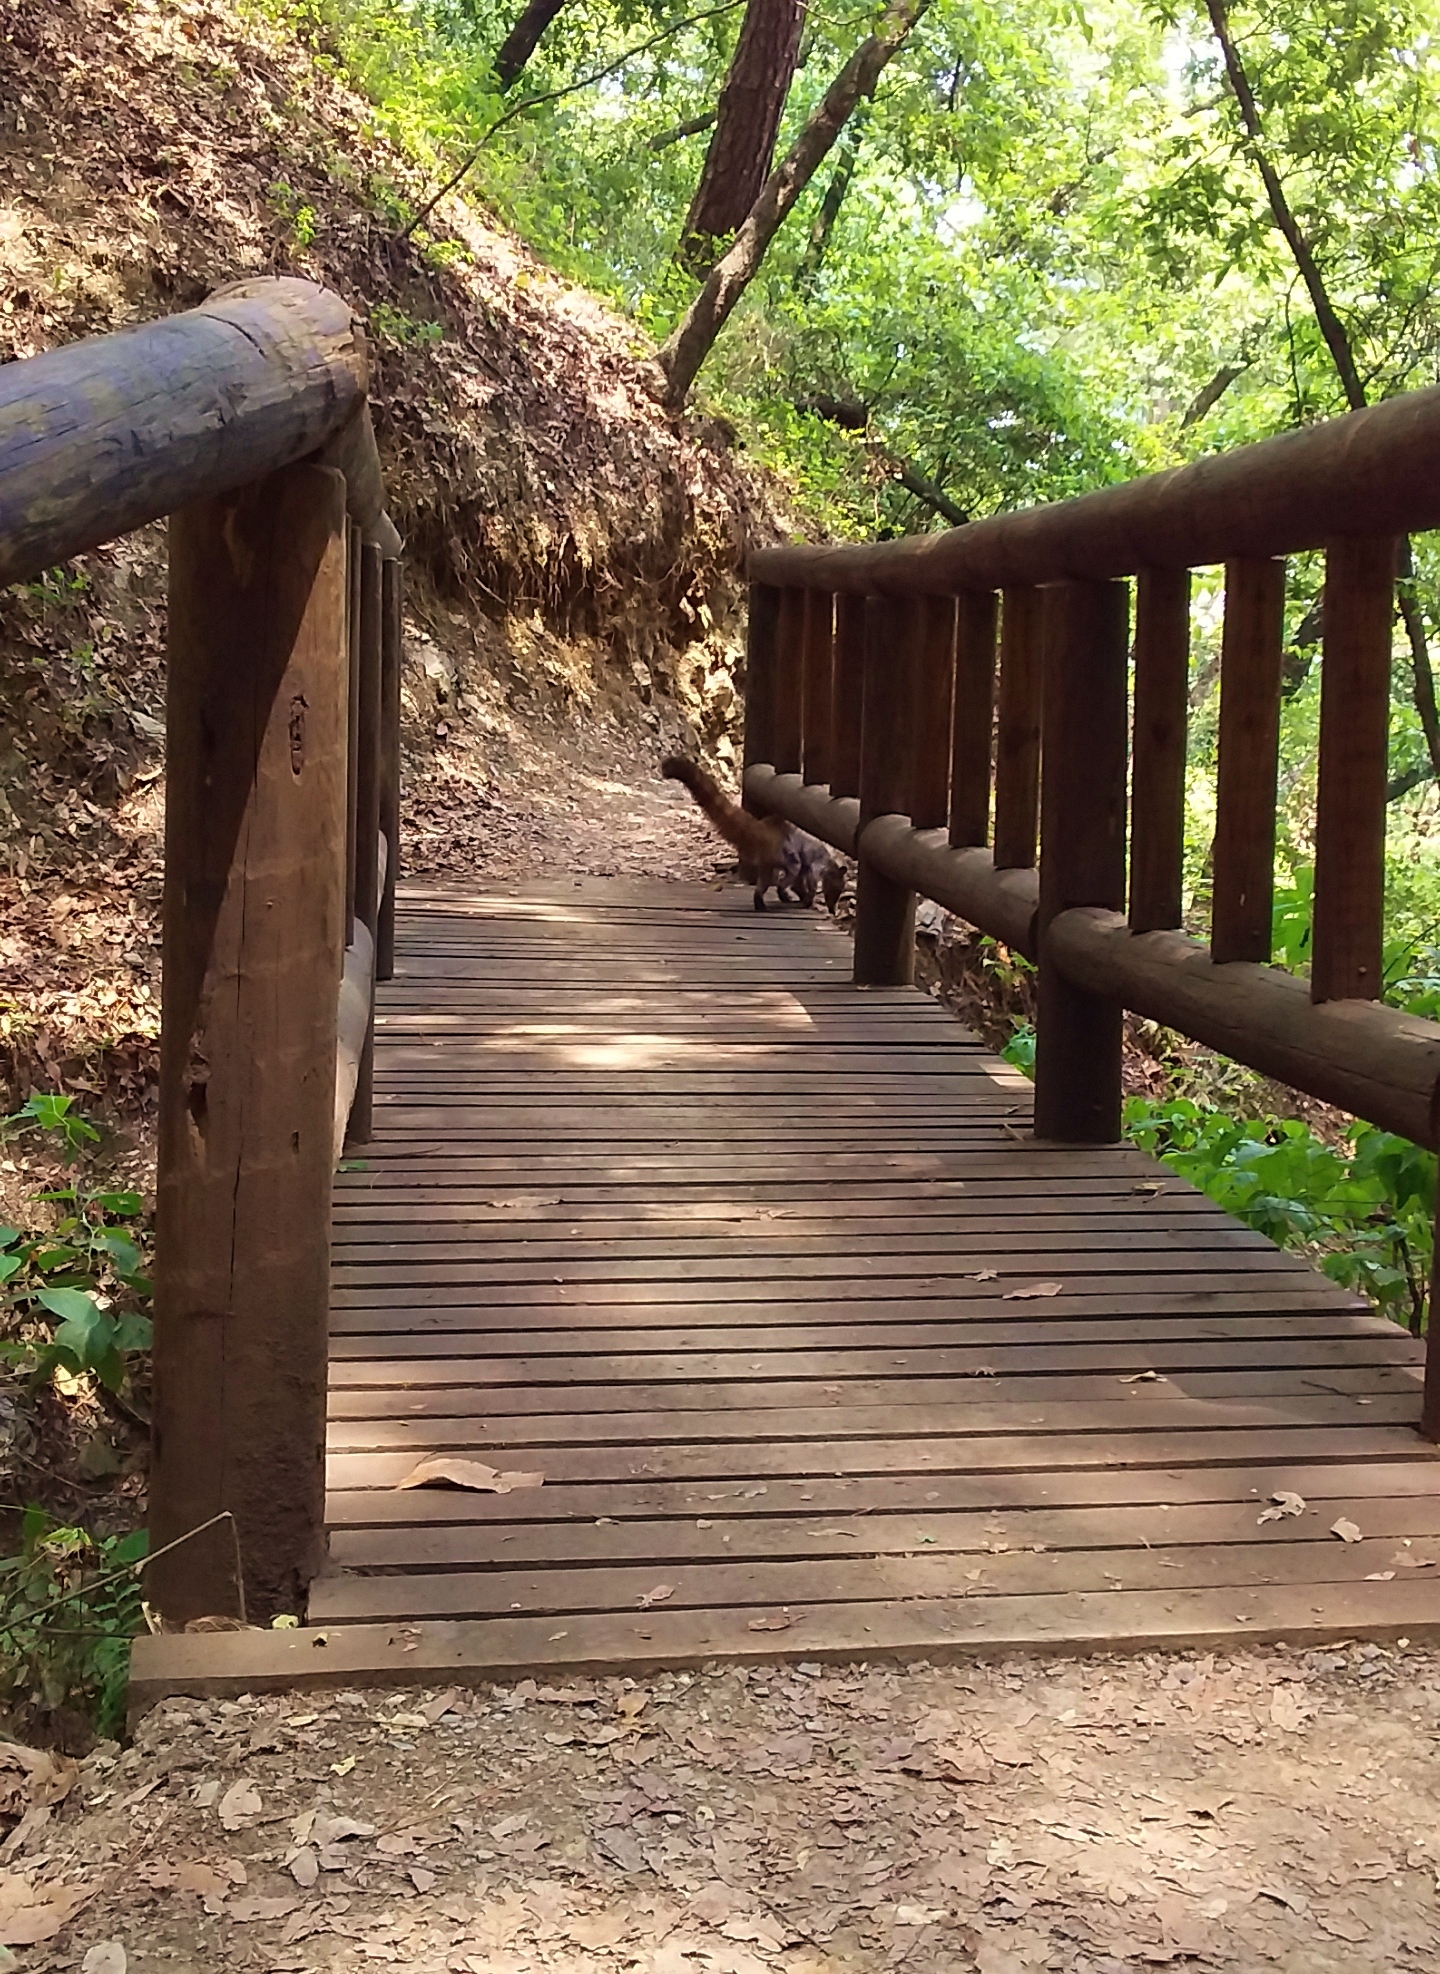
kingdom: Animalia
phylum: Chordata
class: Mammalia
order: Carnivora
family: Procyonidae
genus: Nasua
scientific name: Nasua narica
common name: White-nosed coati
